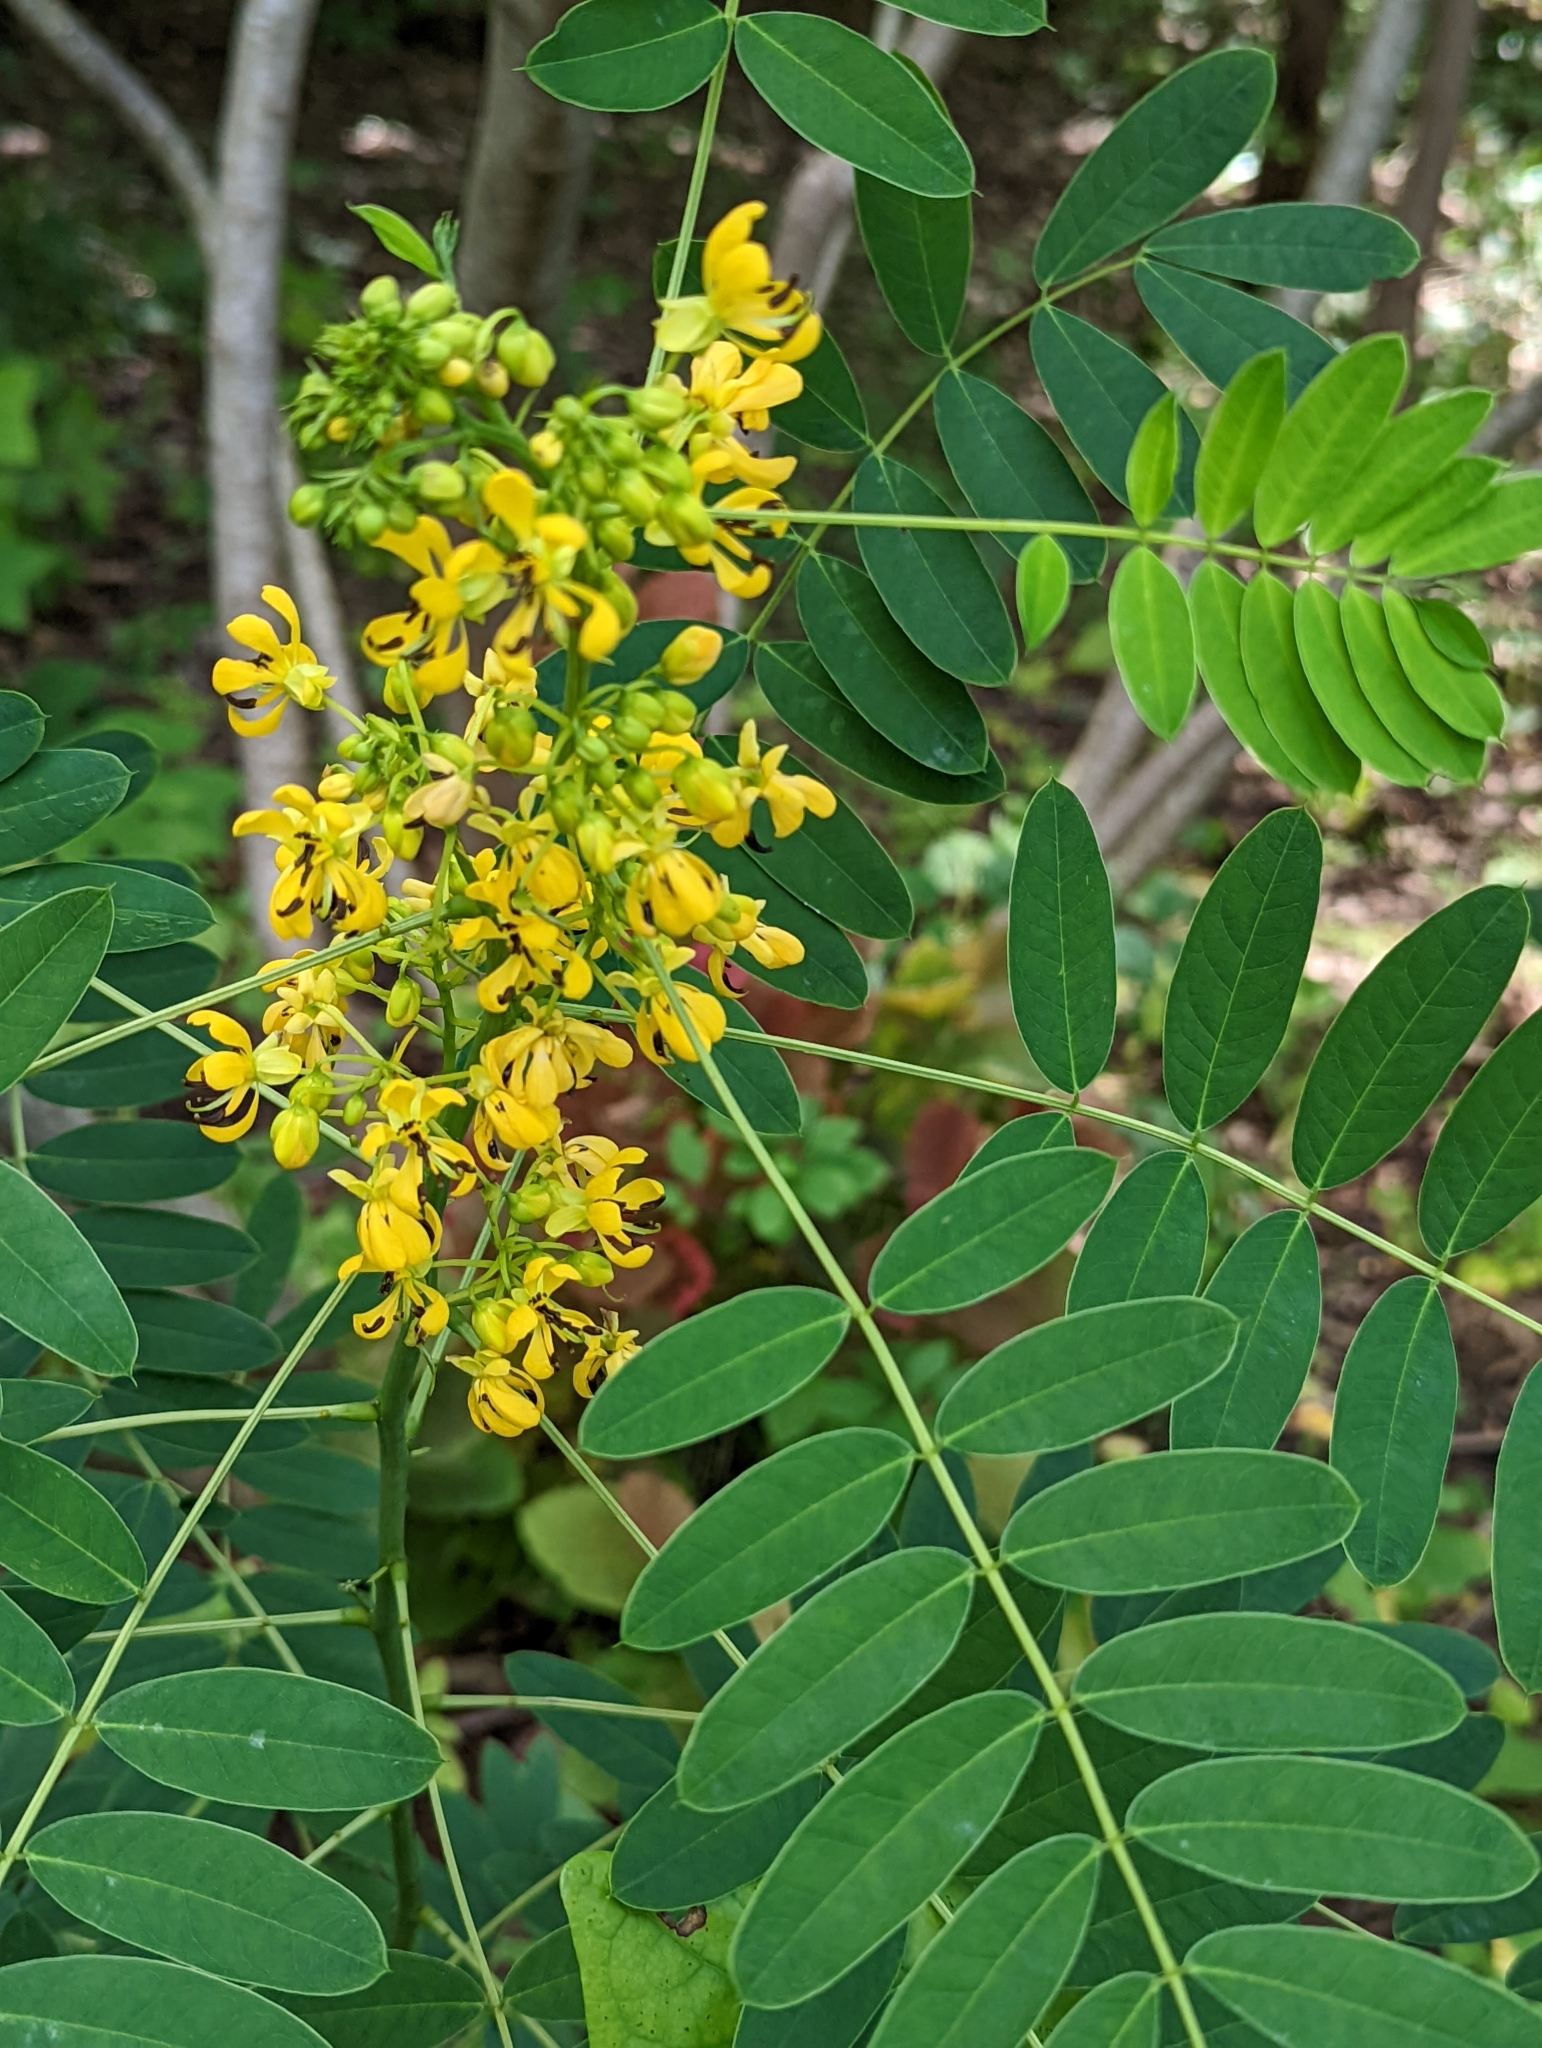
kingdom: Plantae
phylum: Tracheophyta
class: Magnoliopsida
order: Fabales
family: Fabaceae
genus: Senna
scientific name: Senna hebecarpa
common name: Wild senna
